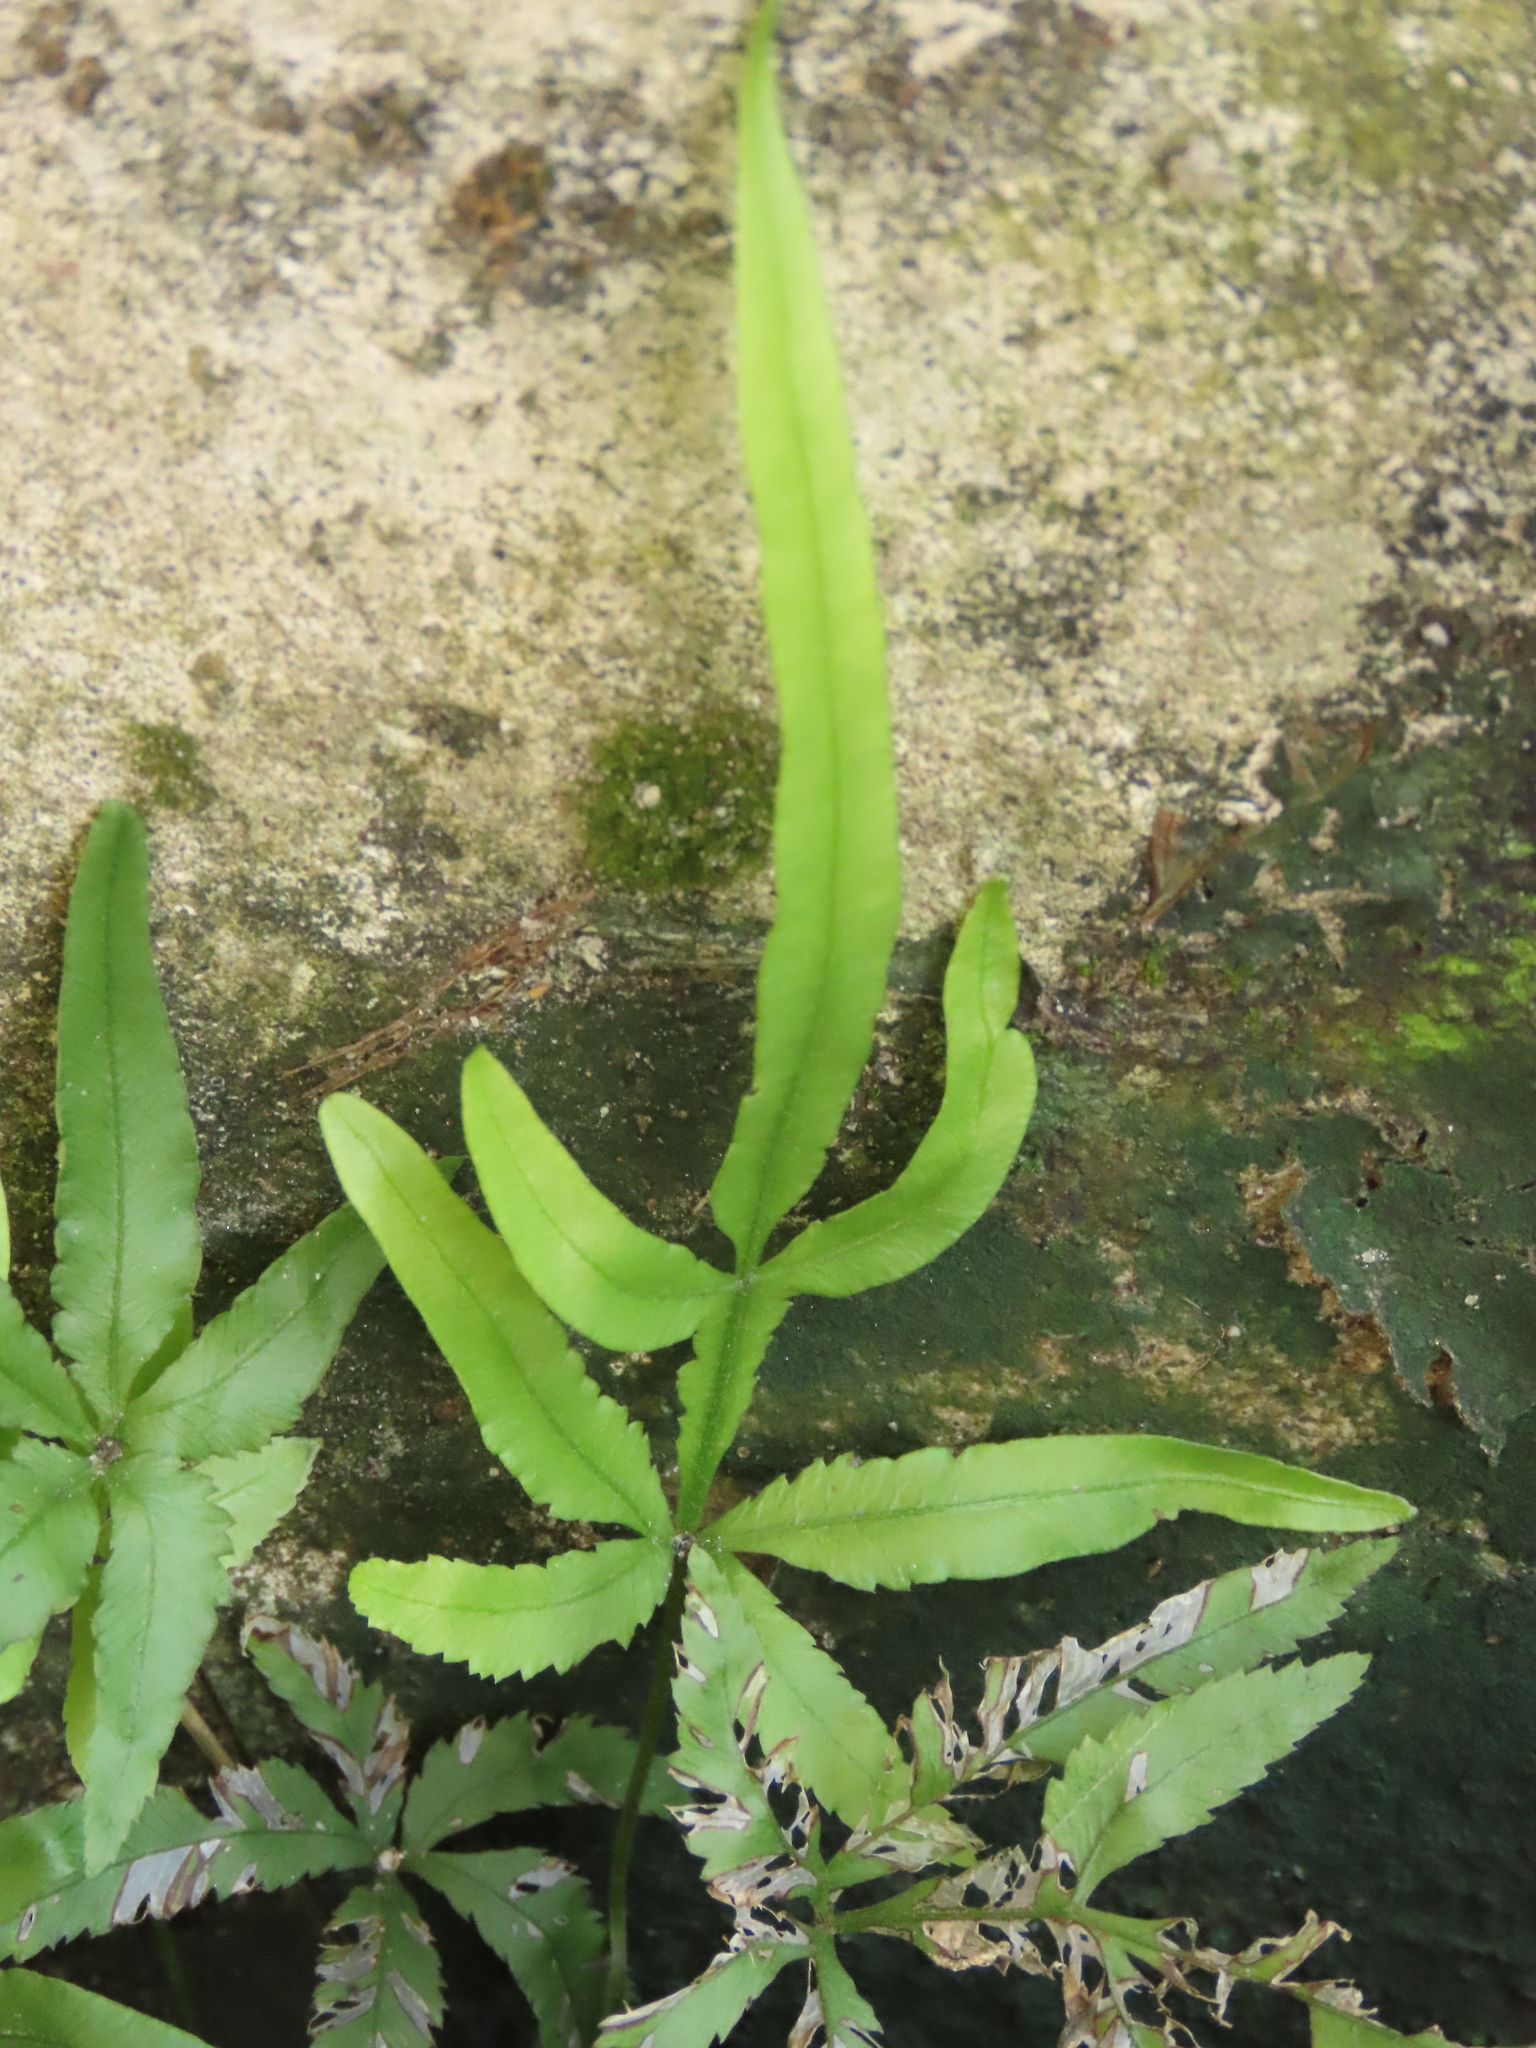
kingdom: Plantae
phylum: Tracheophyta
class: Polypodiopsida
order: Polypodiales
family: Pteridaceae
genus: Pteris
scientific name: Pteris multifida
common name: Spider brake
